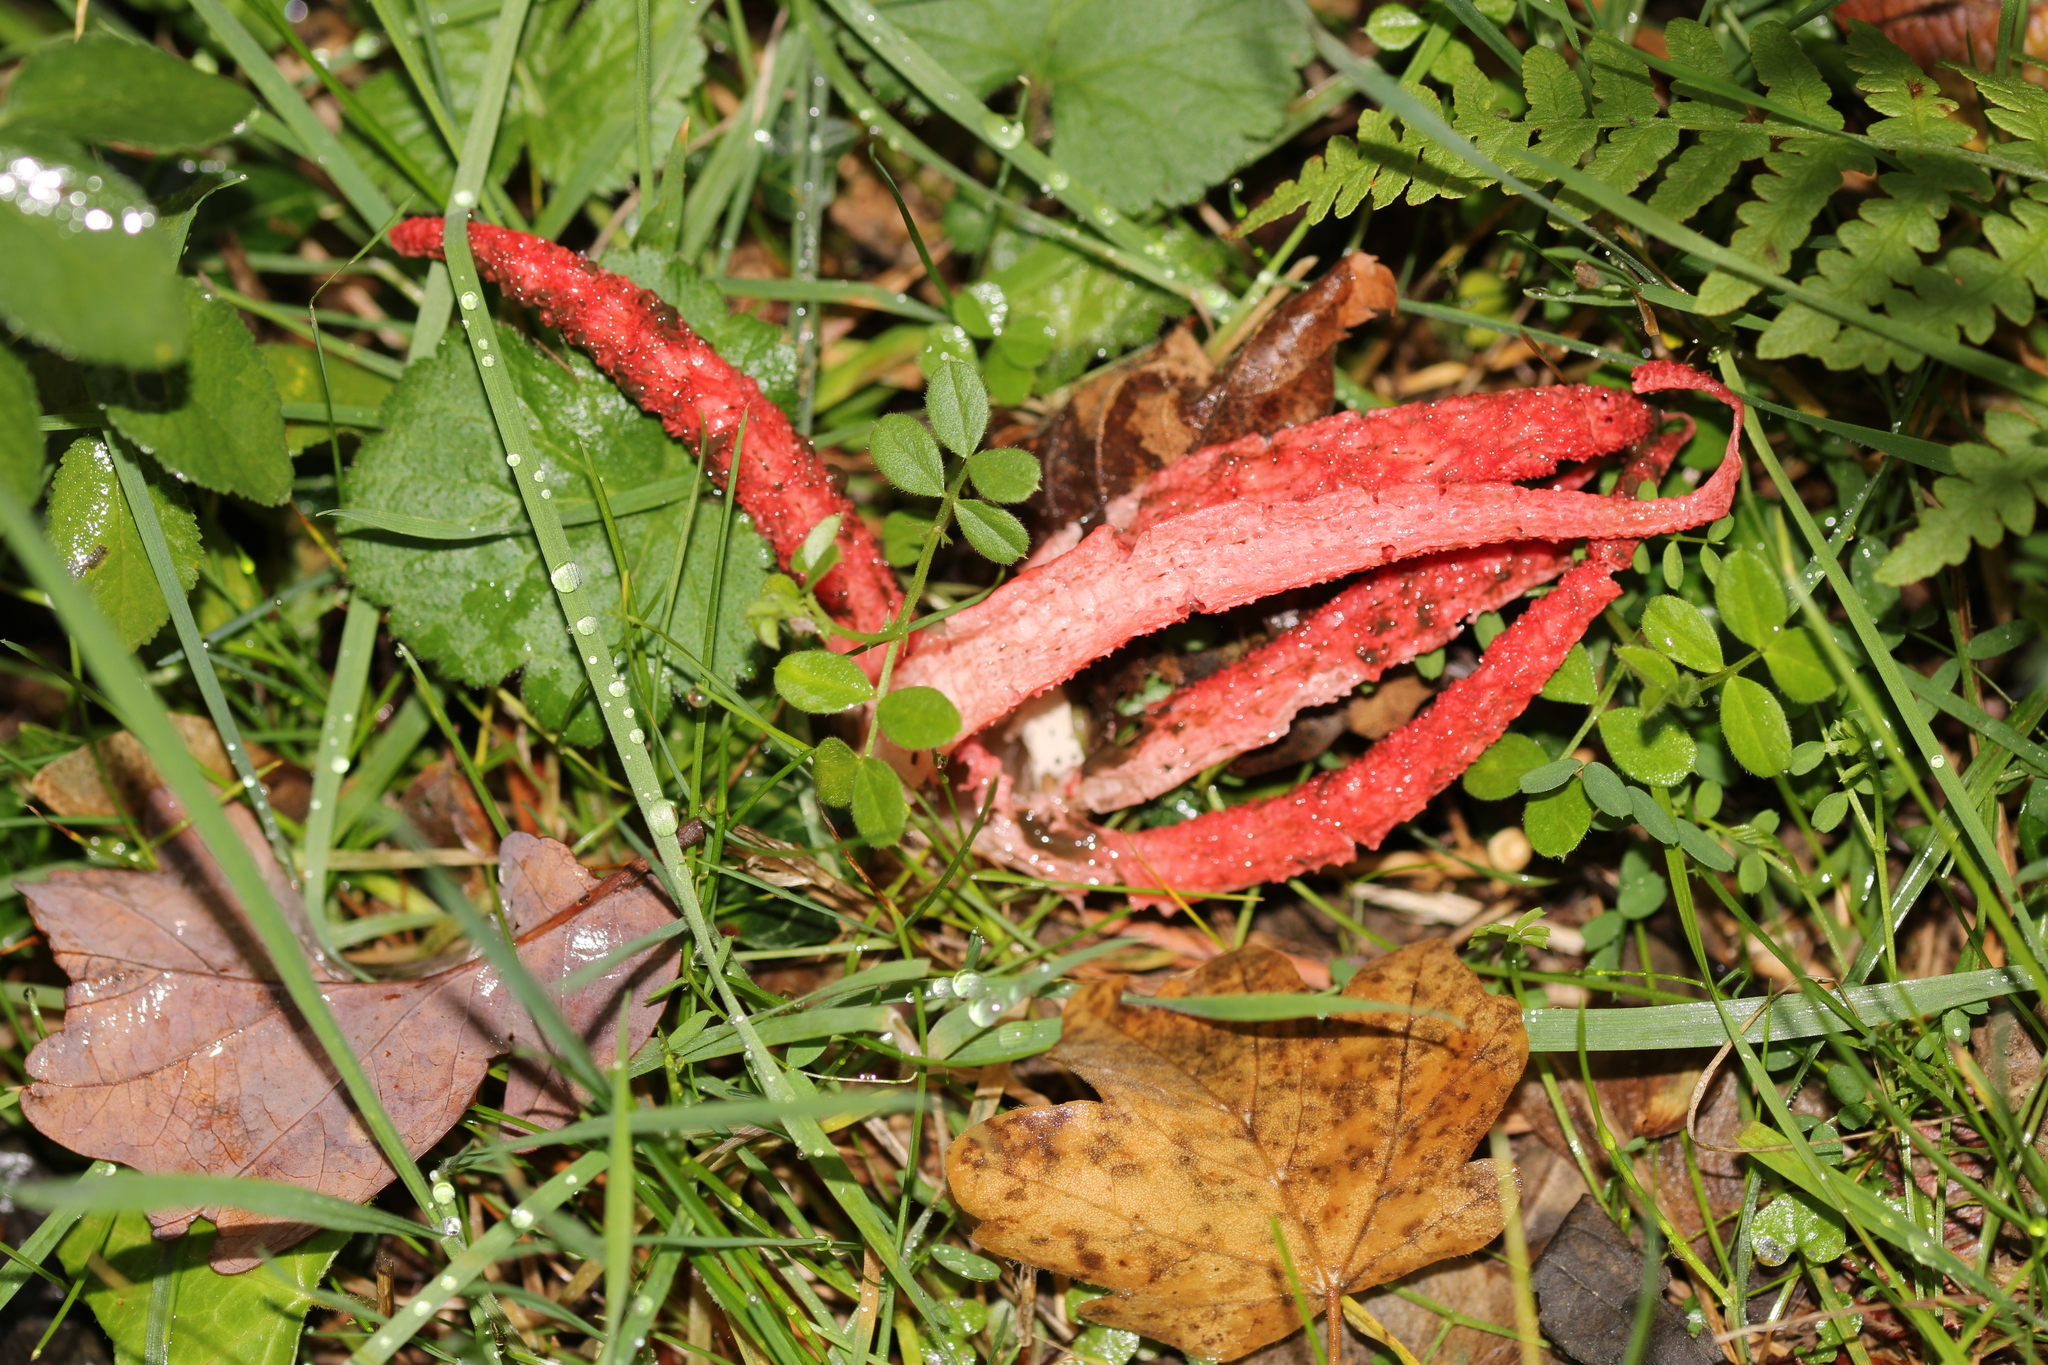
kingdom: Fungi
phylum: Basidiomycota
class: Agaricomycetes
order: Phallales
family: Phallaceae
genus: Clathrus
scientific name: Clathrus archeri
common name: Devil's fingers
